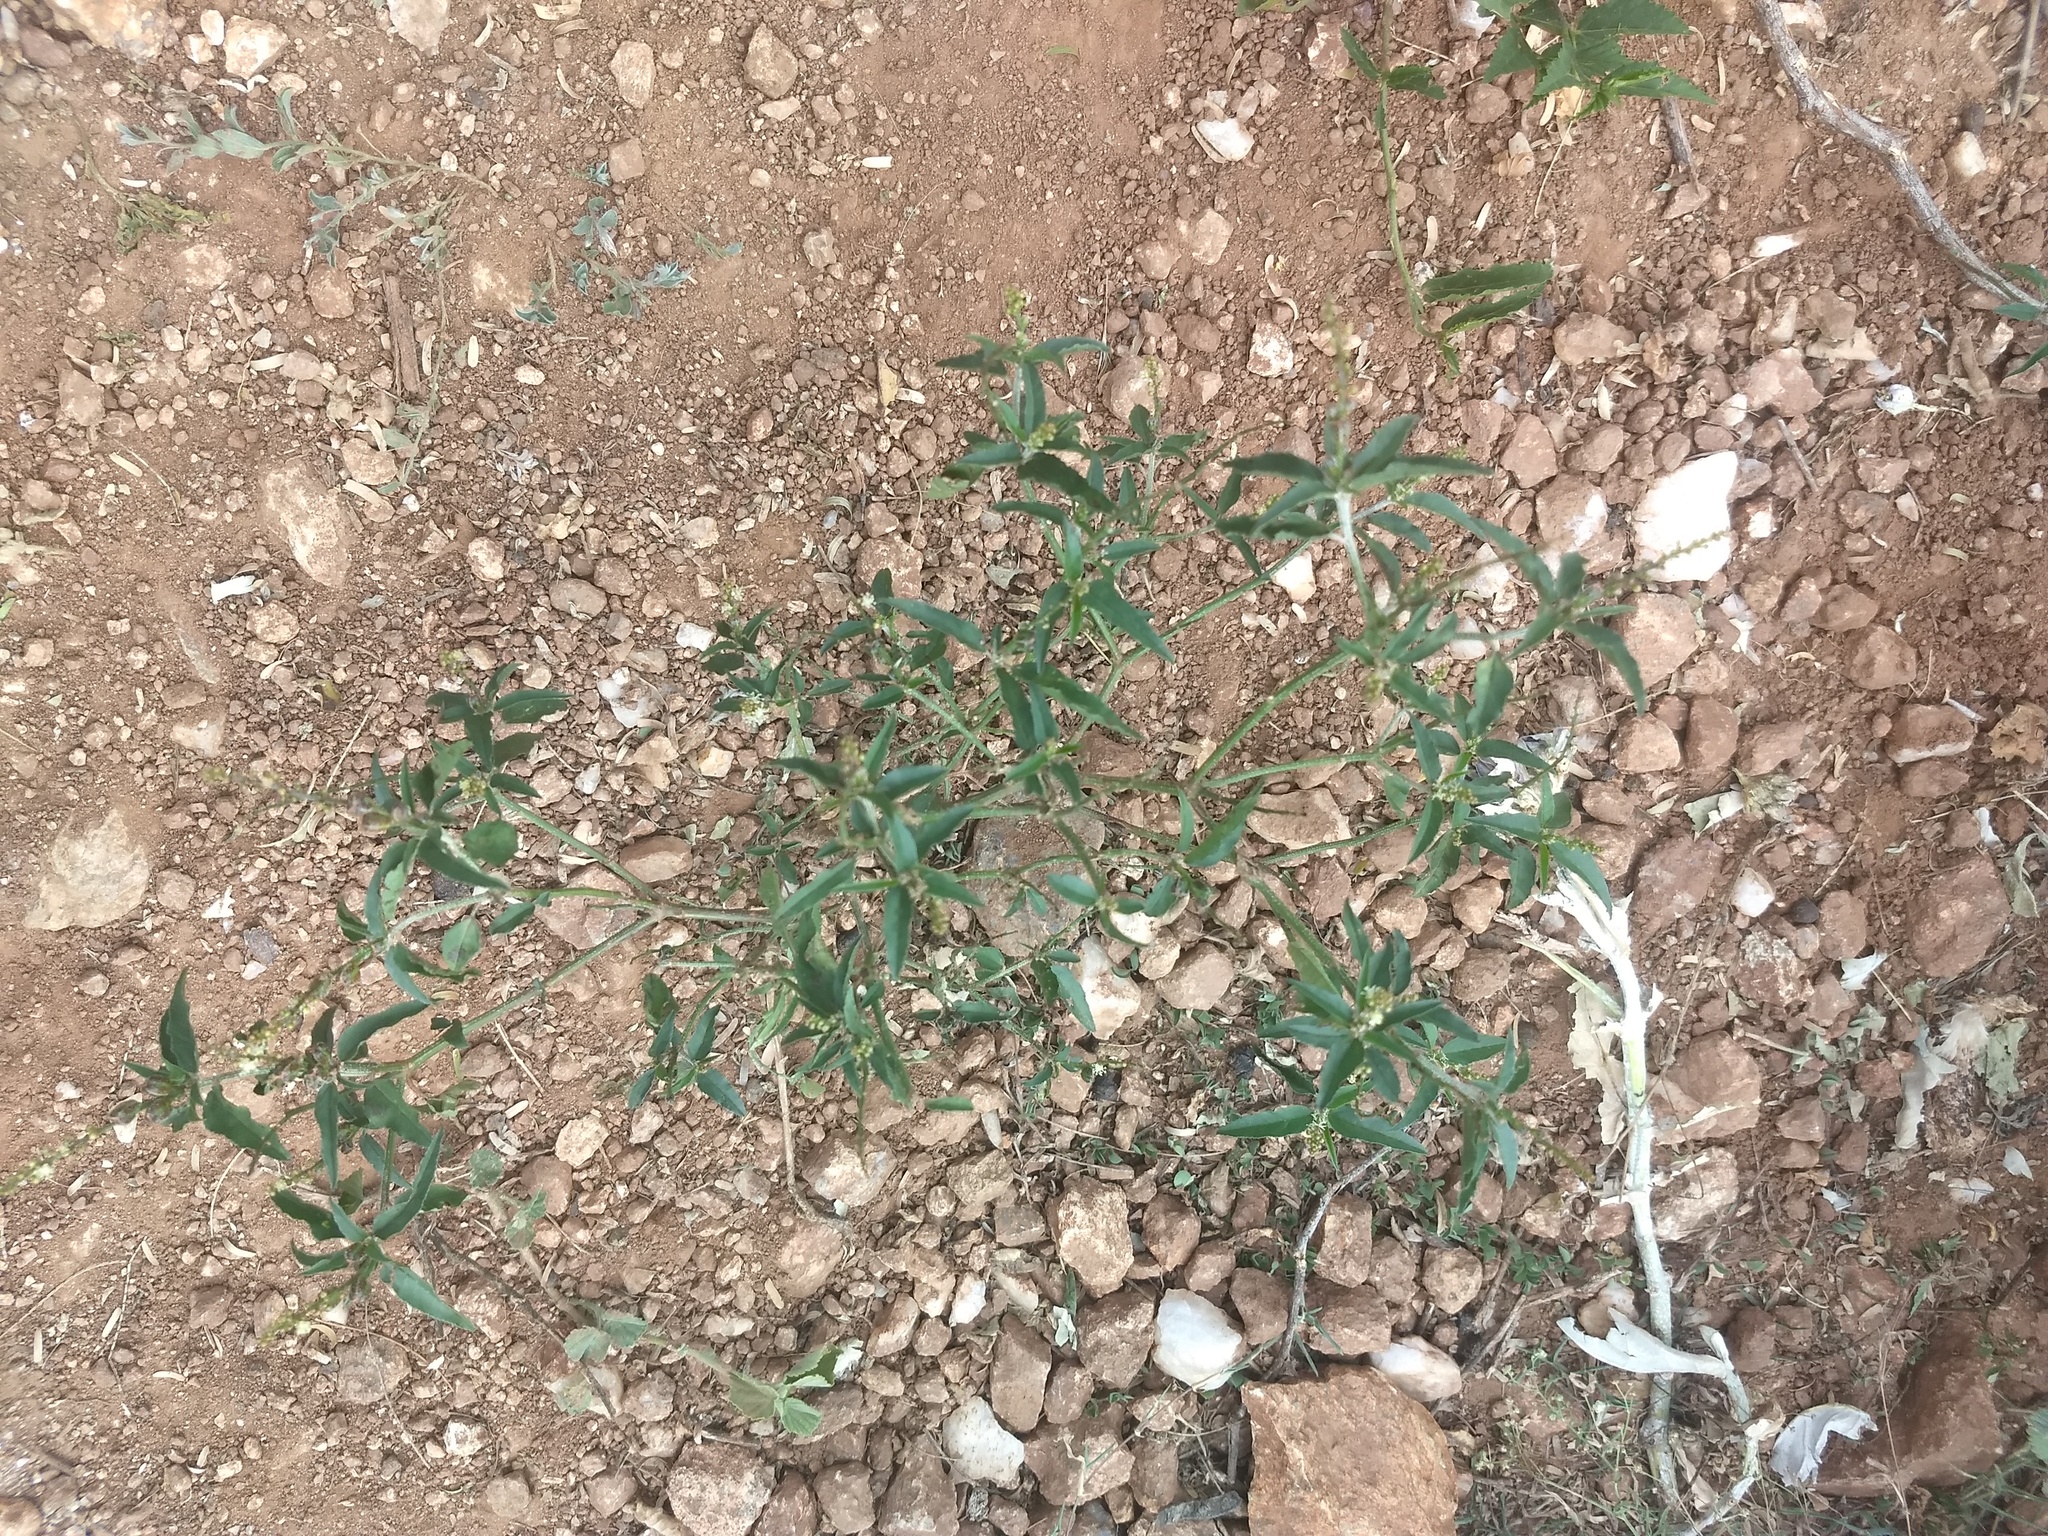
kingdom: Plantae
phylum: Tracheophyta
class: Magnoliopsida
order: Malpighiales
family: Euphorbiaceae
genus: Croton
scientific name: Croton bonplandianus
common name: Bonpland's croton
